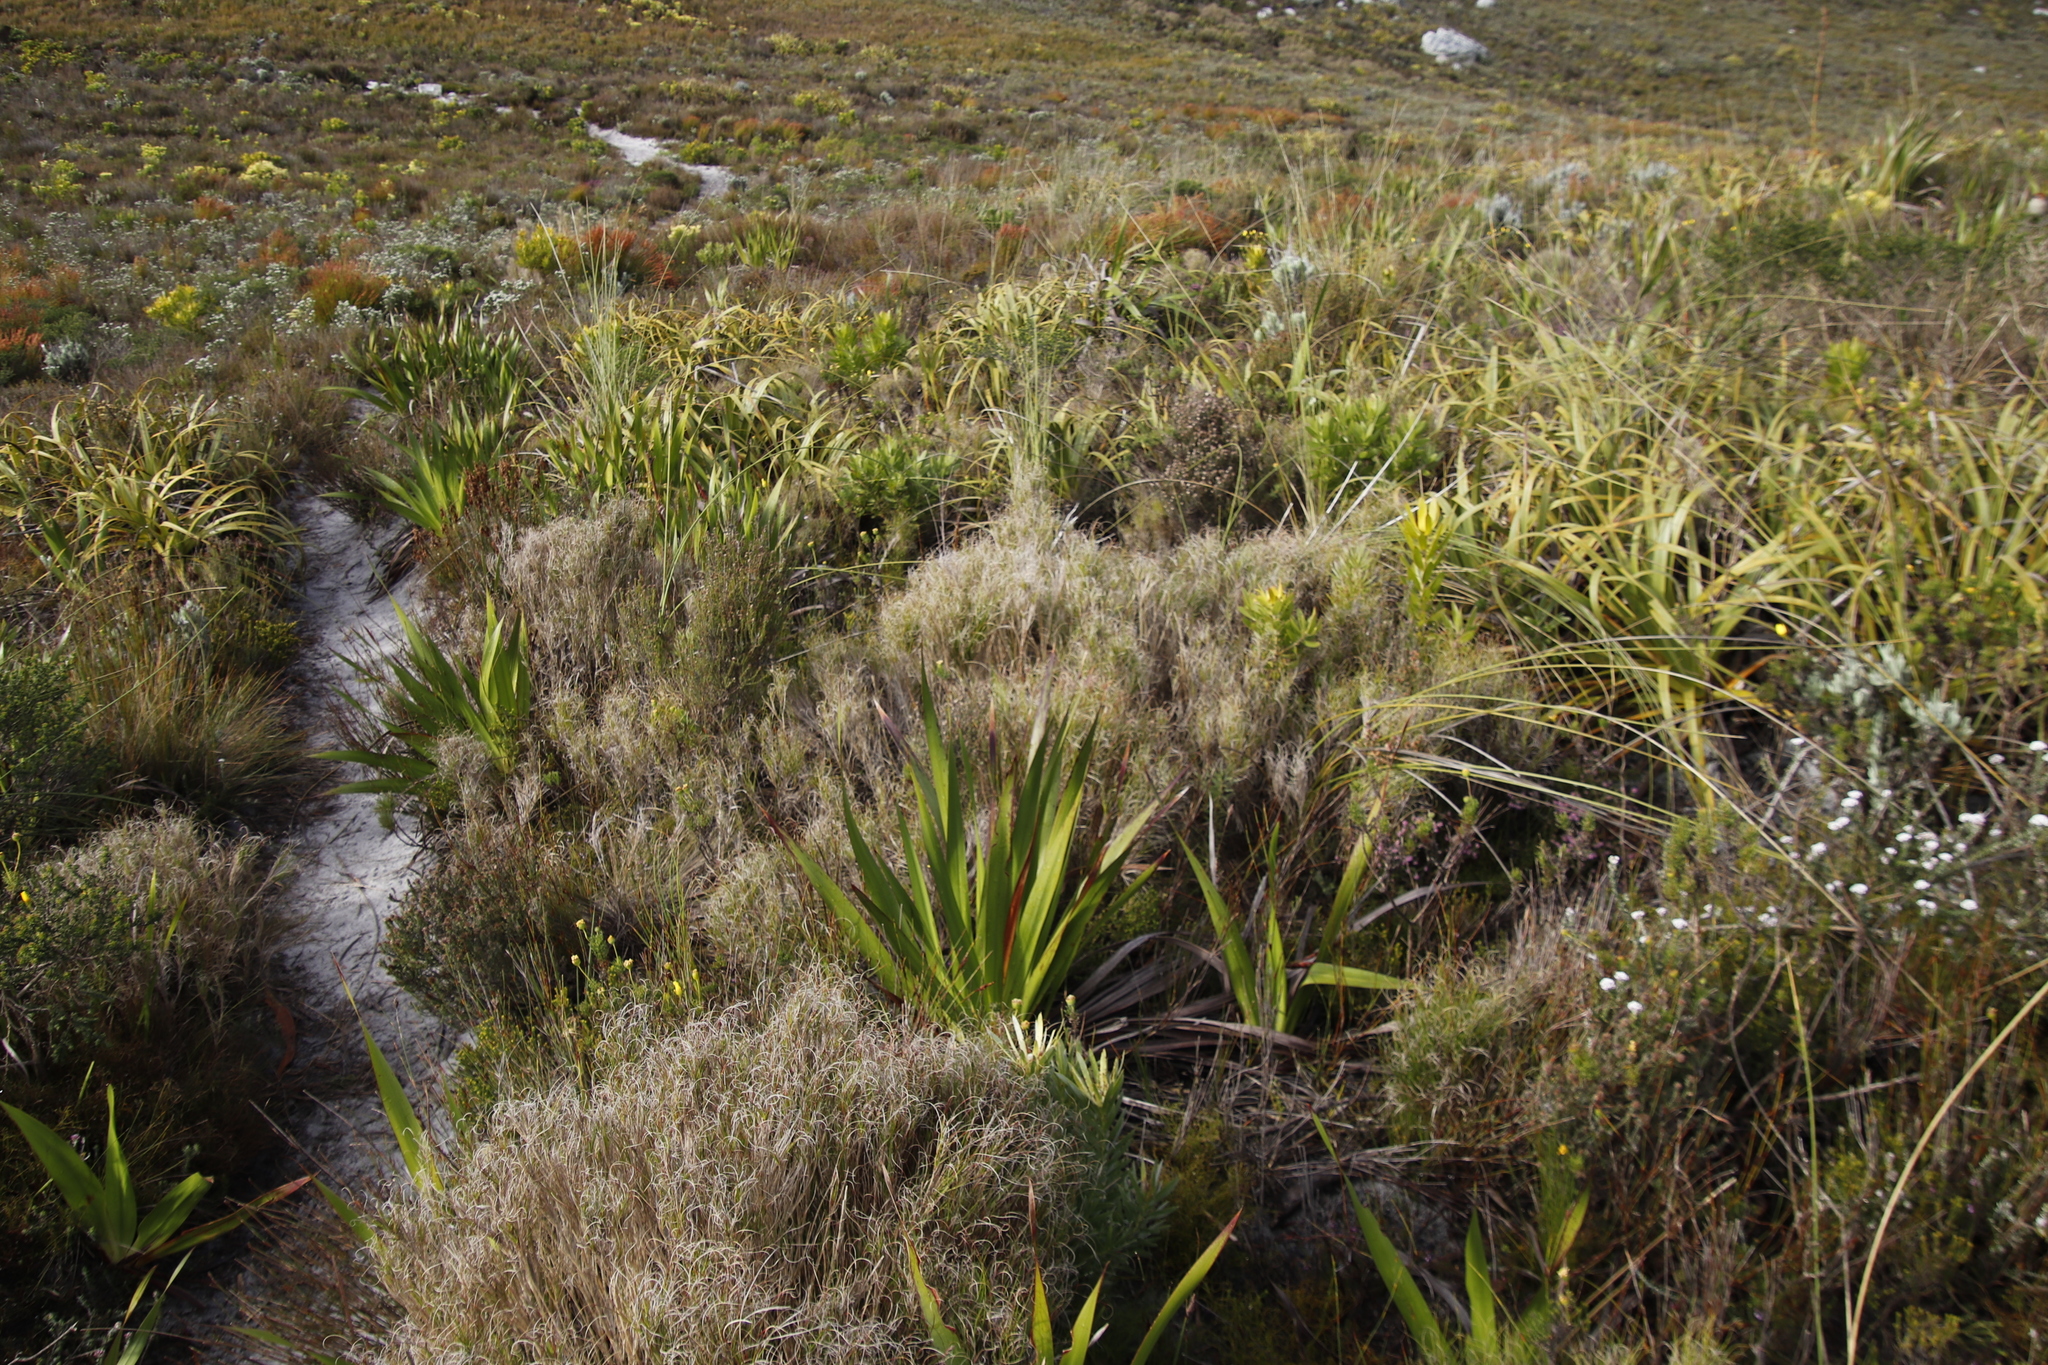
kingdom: Plantae
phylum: Tracheophyta
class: Liliopsida
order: Poales
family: Poaceae
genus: Pseudopentameris
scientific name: Pseudopentameris macrantha
